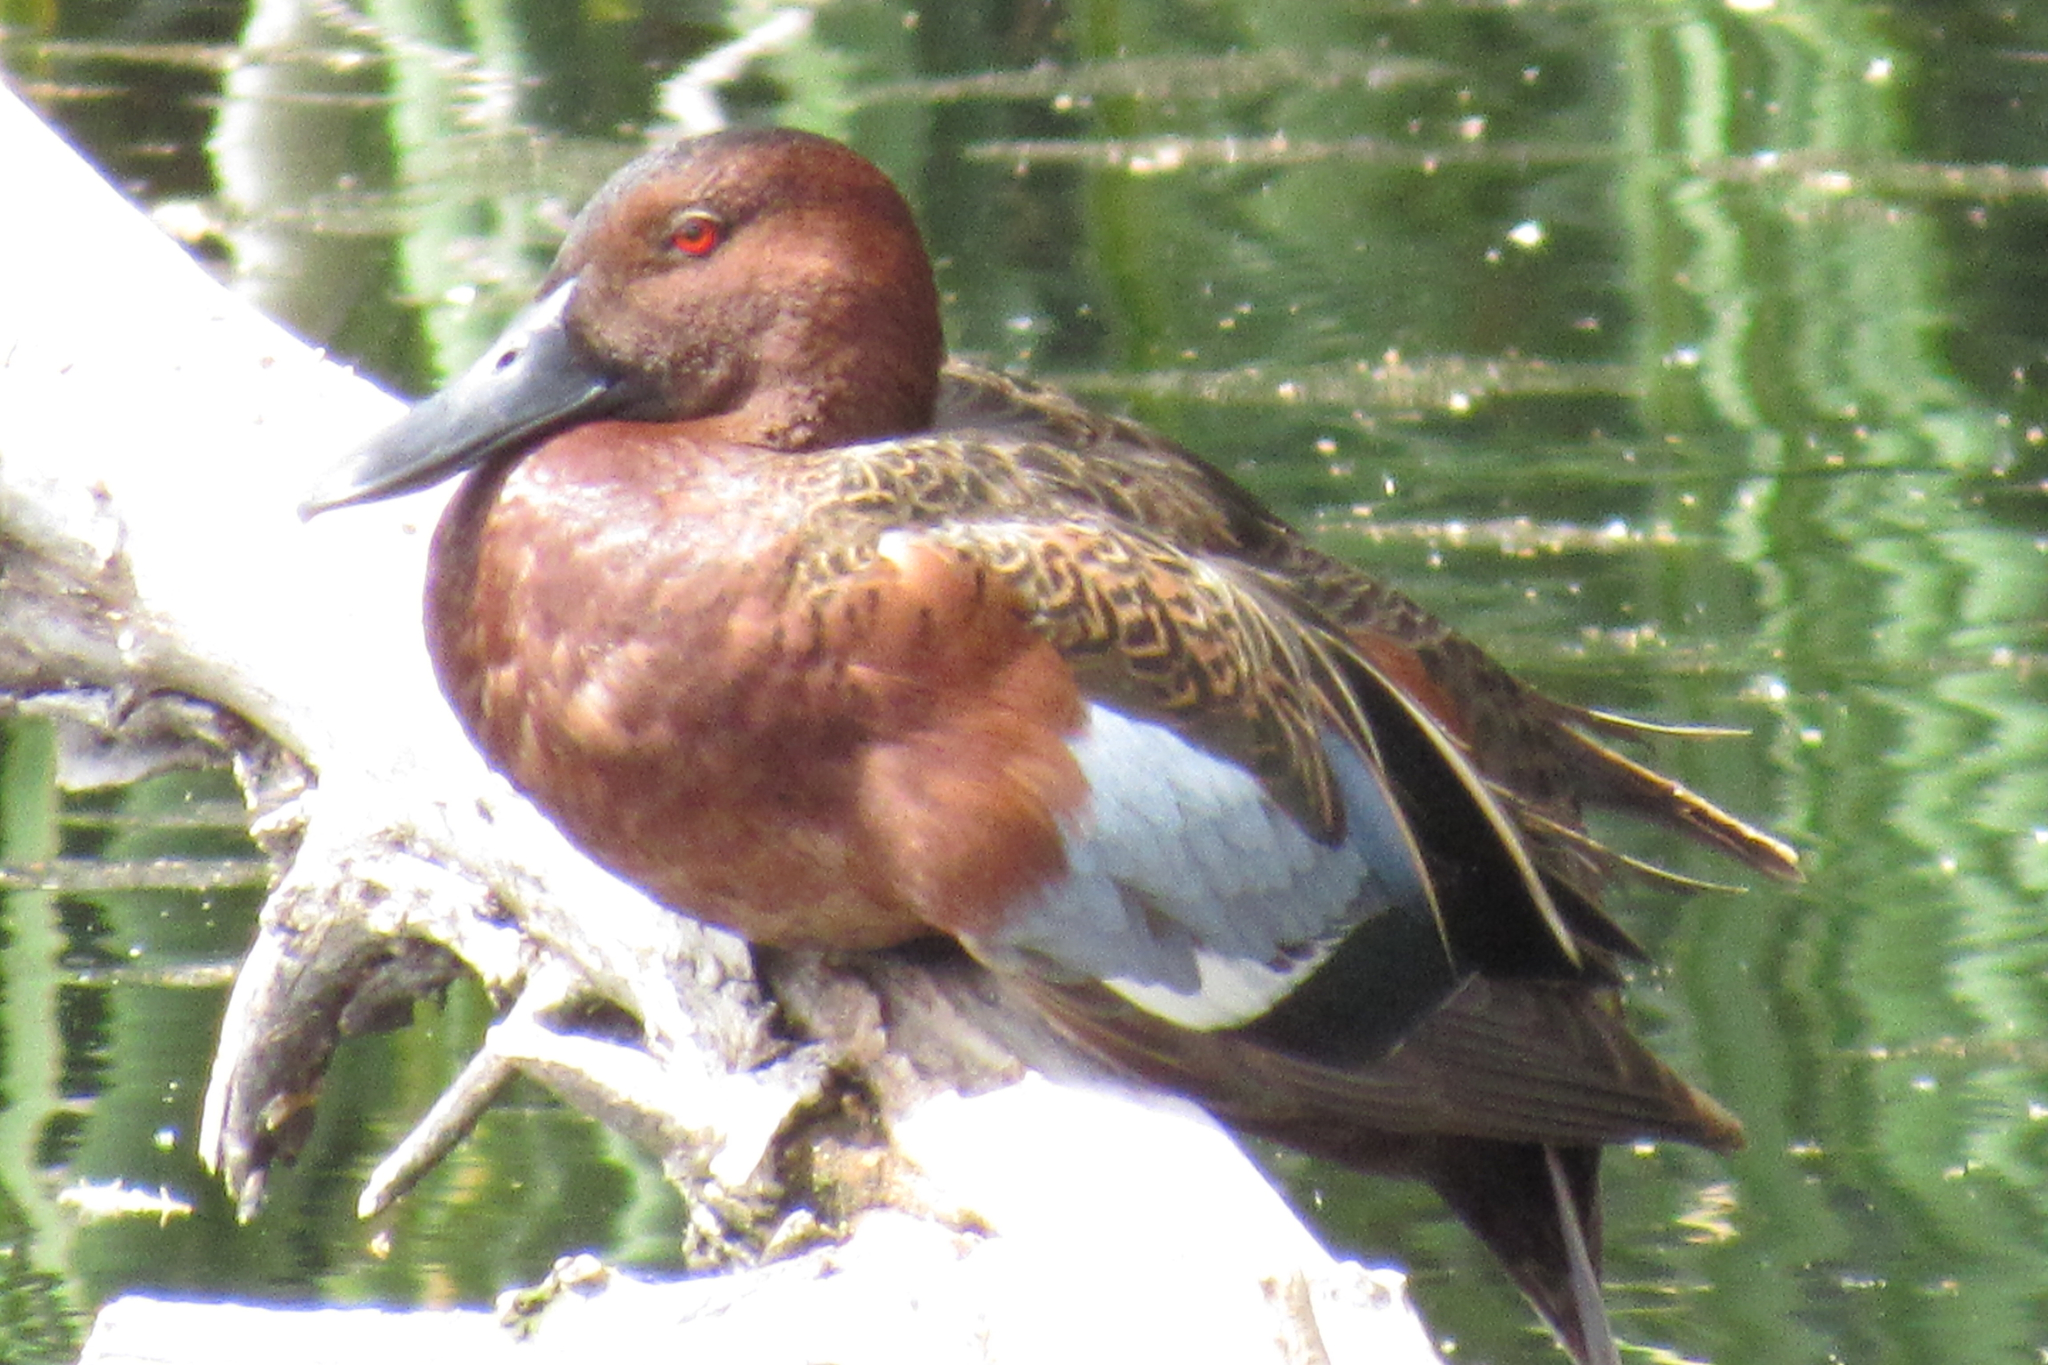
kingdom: Animalia
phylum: Chordata
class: Aves
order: Anseriformes
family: Anatidae
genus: Spatula
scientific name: Spatula cyanoptera
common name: Cinnamon teal
